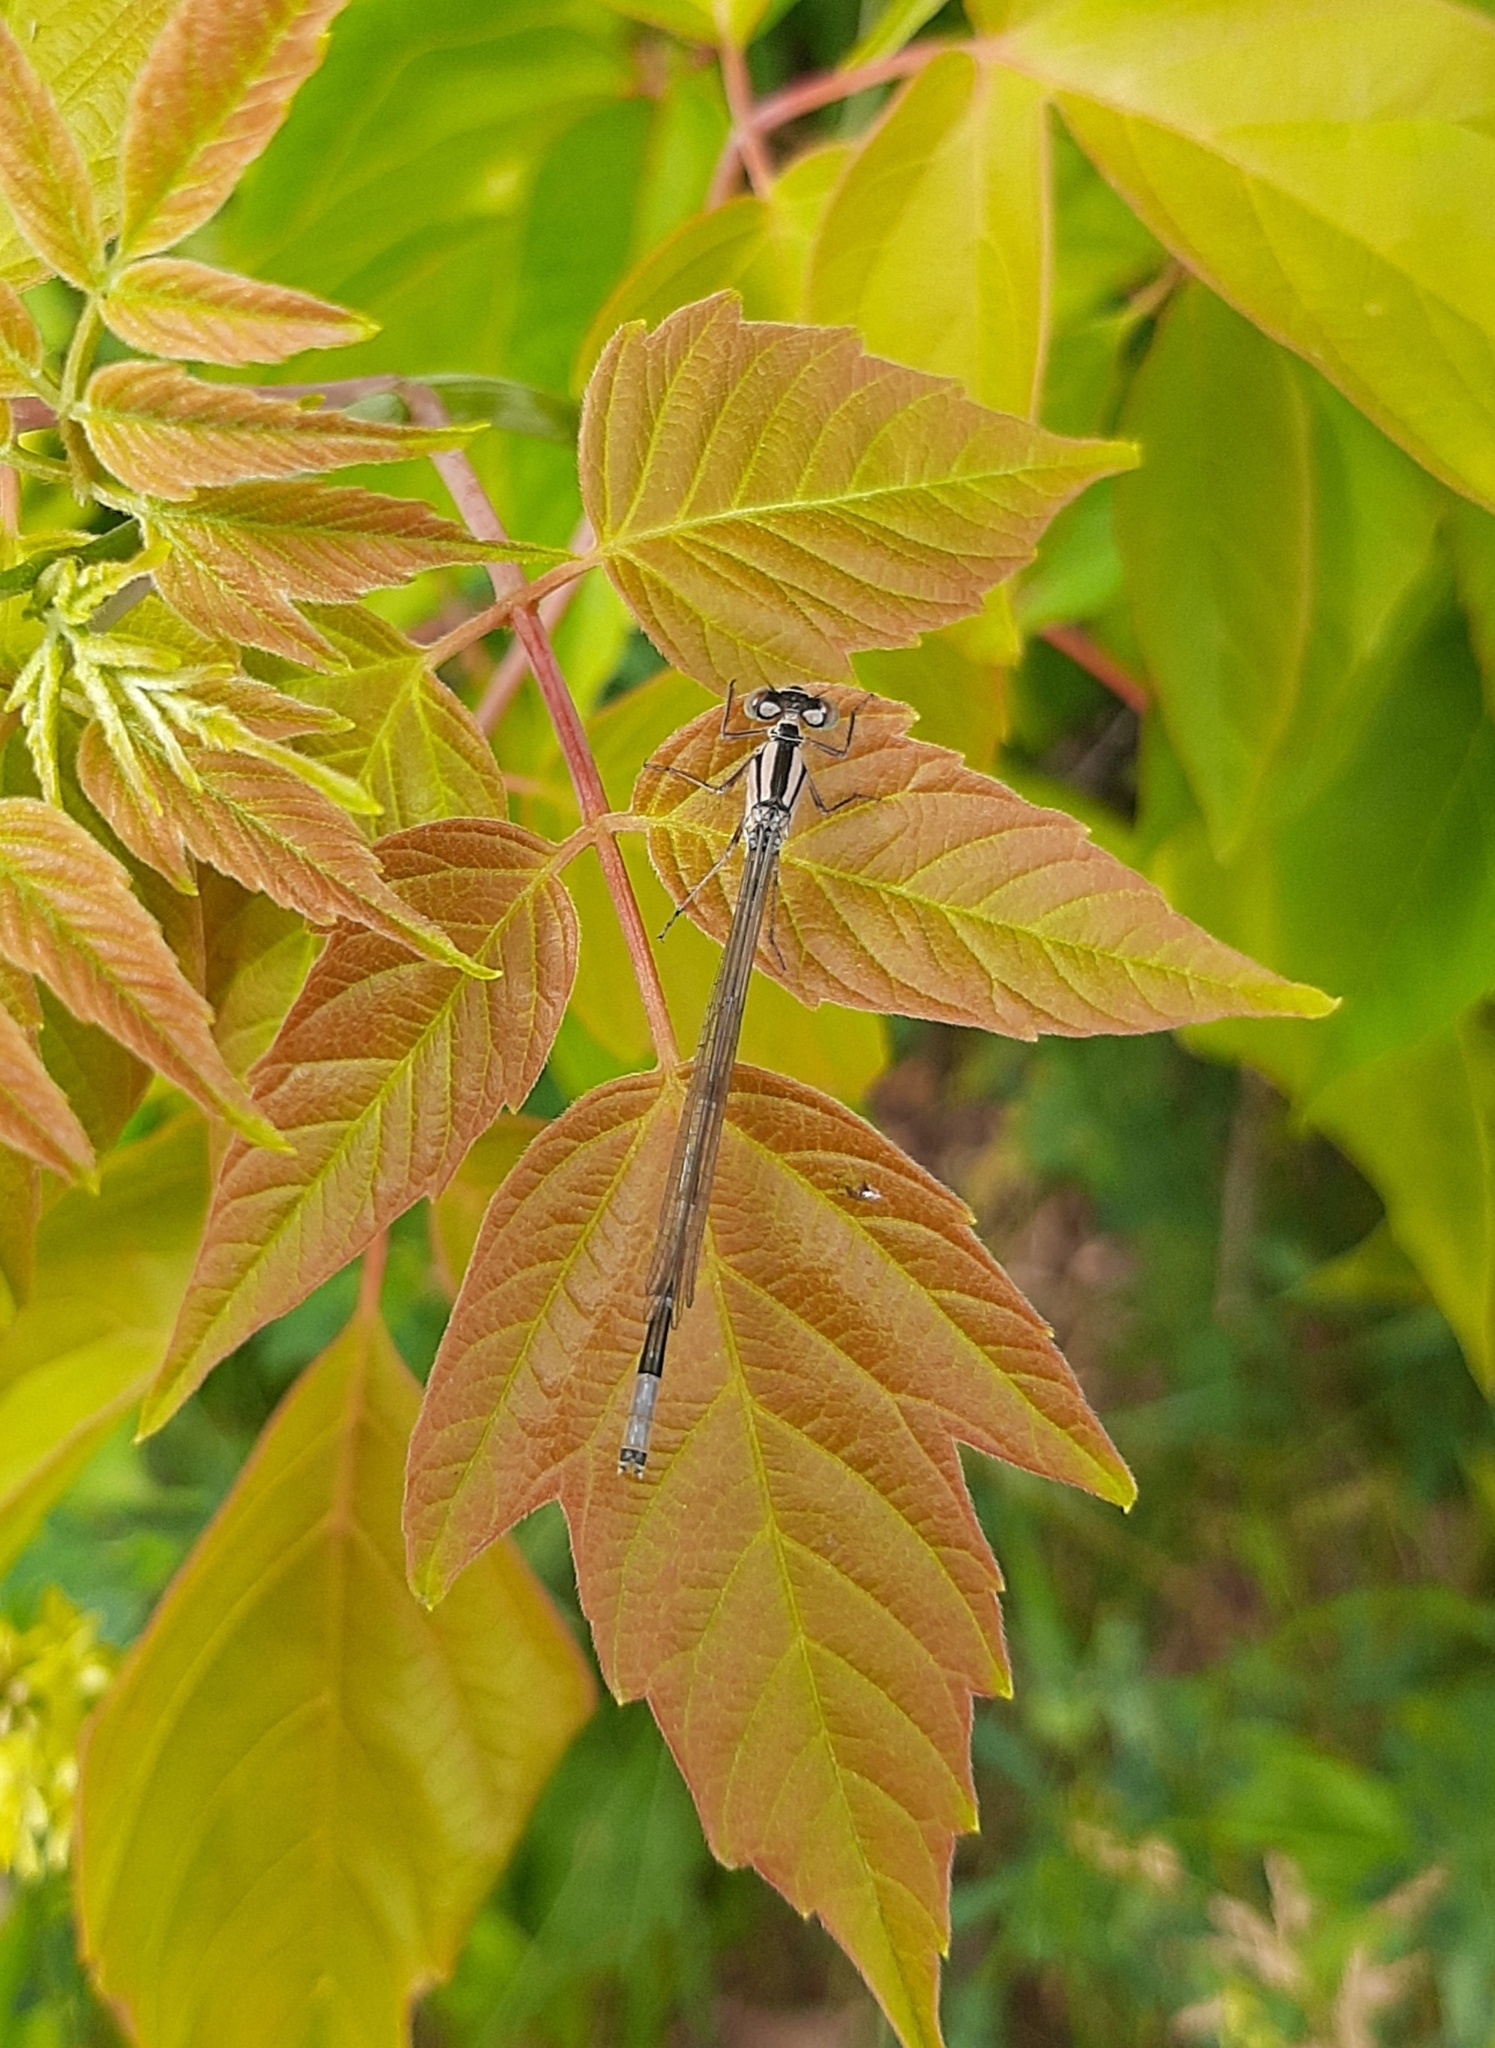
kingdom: Animalia
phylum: Arthropoda
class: Insecta
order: Odonata
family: Coenagrionidae
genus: Enallagma
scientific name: Enallagma cyathigerum
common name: Common blue damselfly
